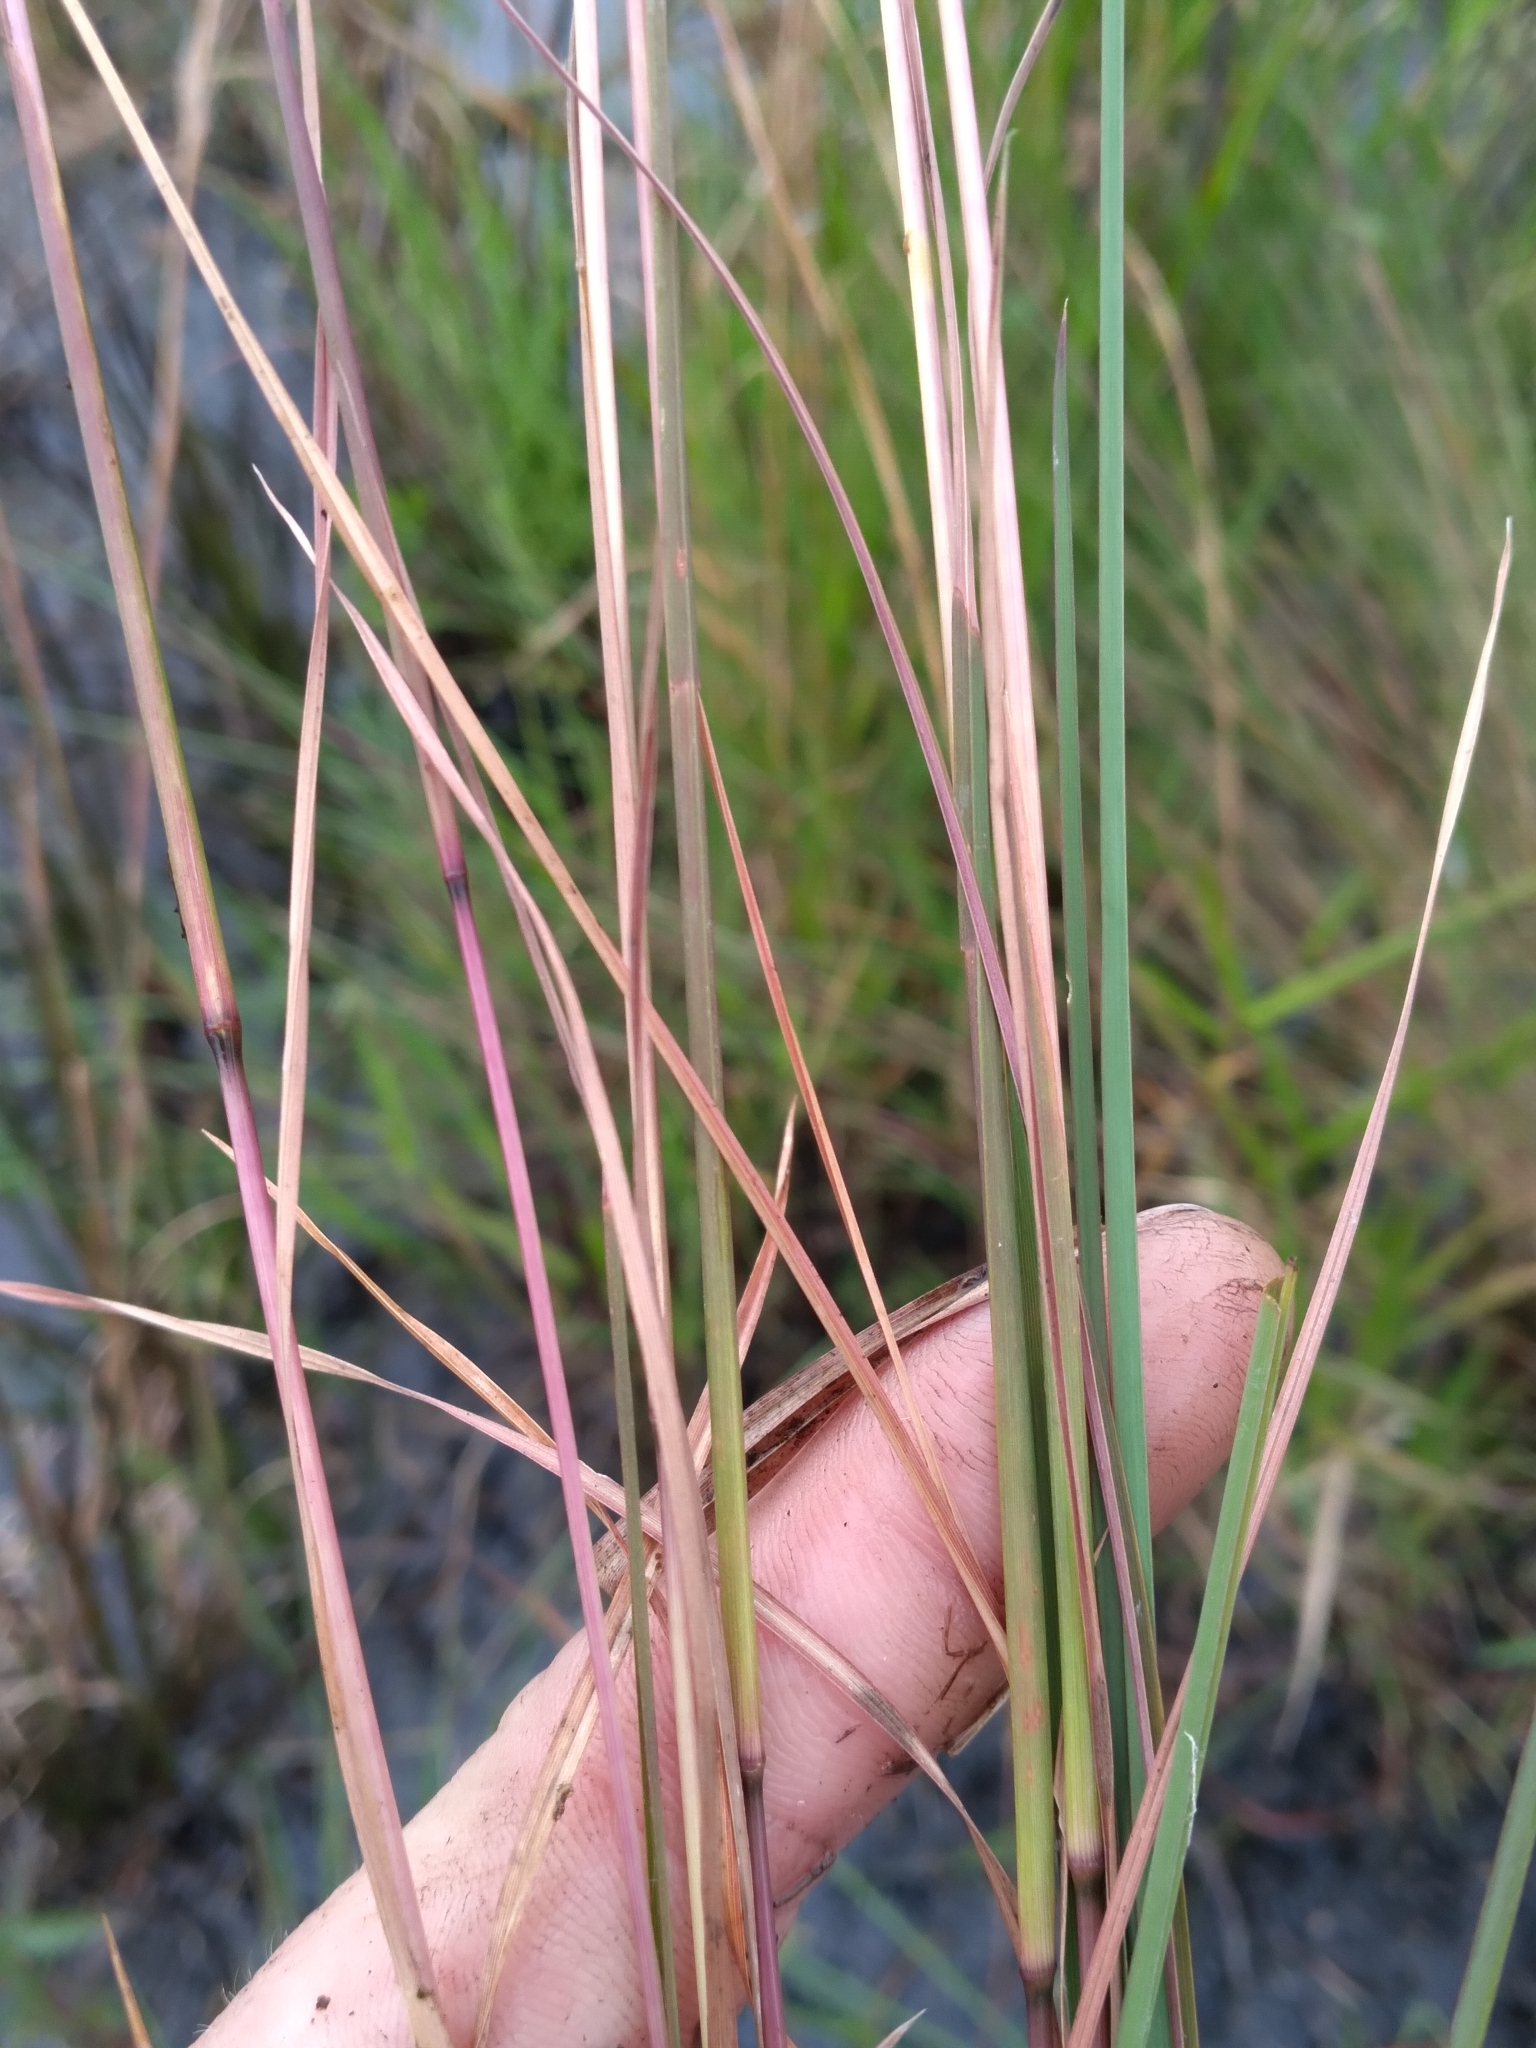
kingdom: Plantae
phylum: Tracheophyta
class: Liliopsida
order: Poales
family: Poaceae
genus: Andropogon
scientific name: Andropogon virginicus
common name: Broomsedge bluestem
